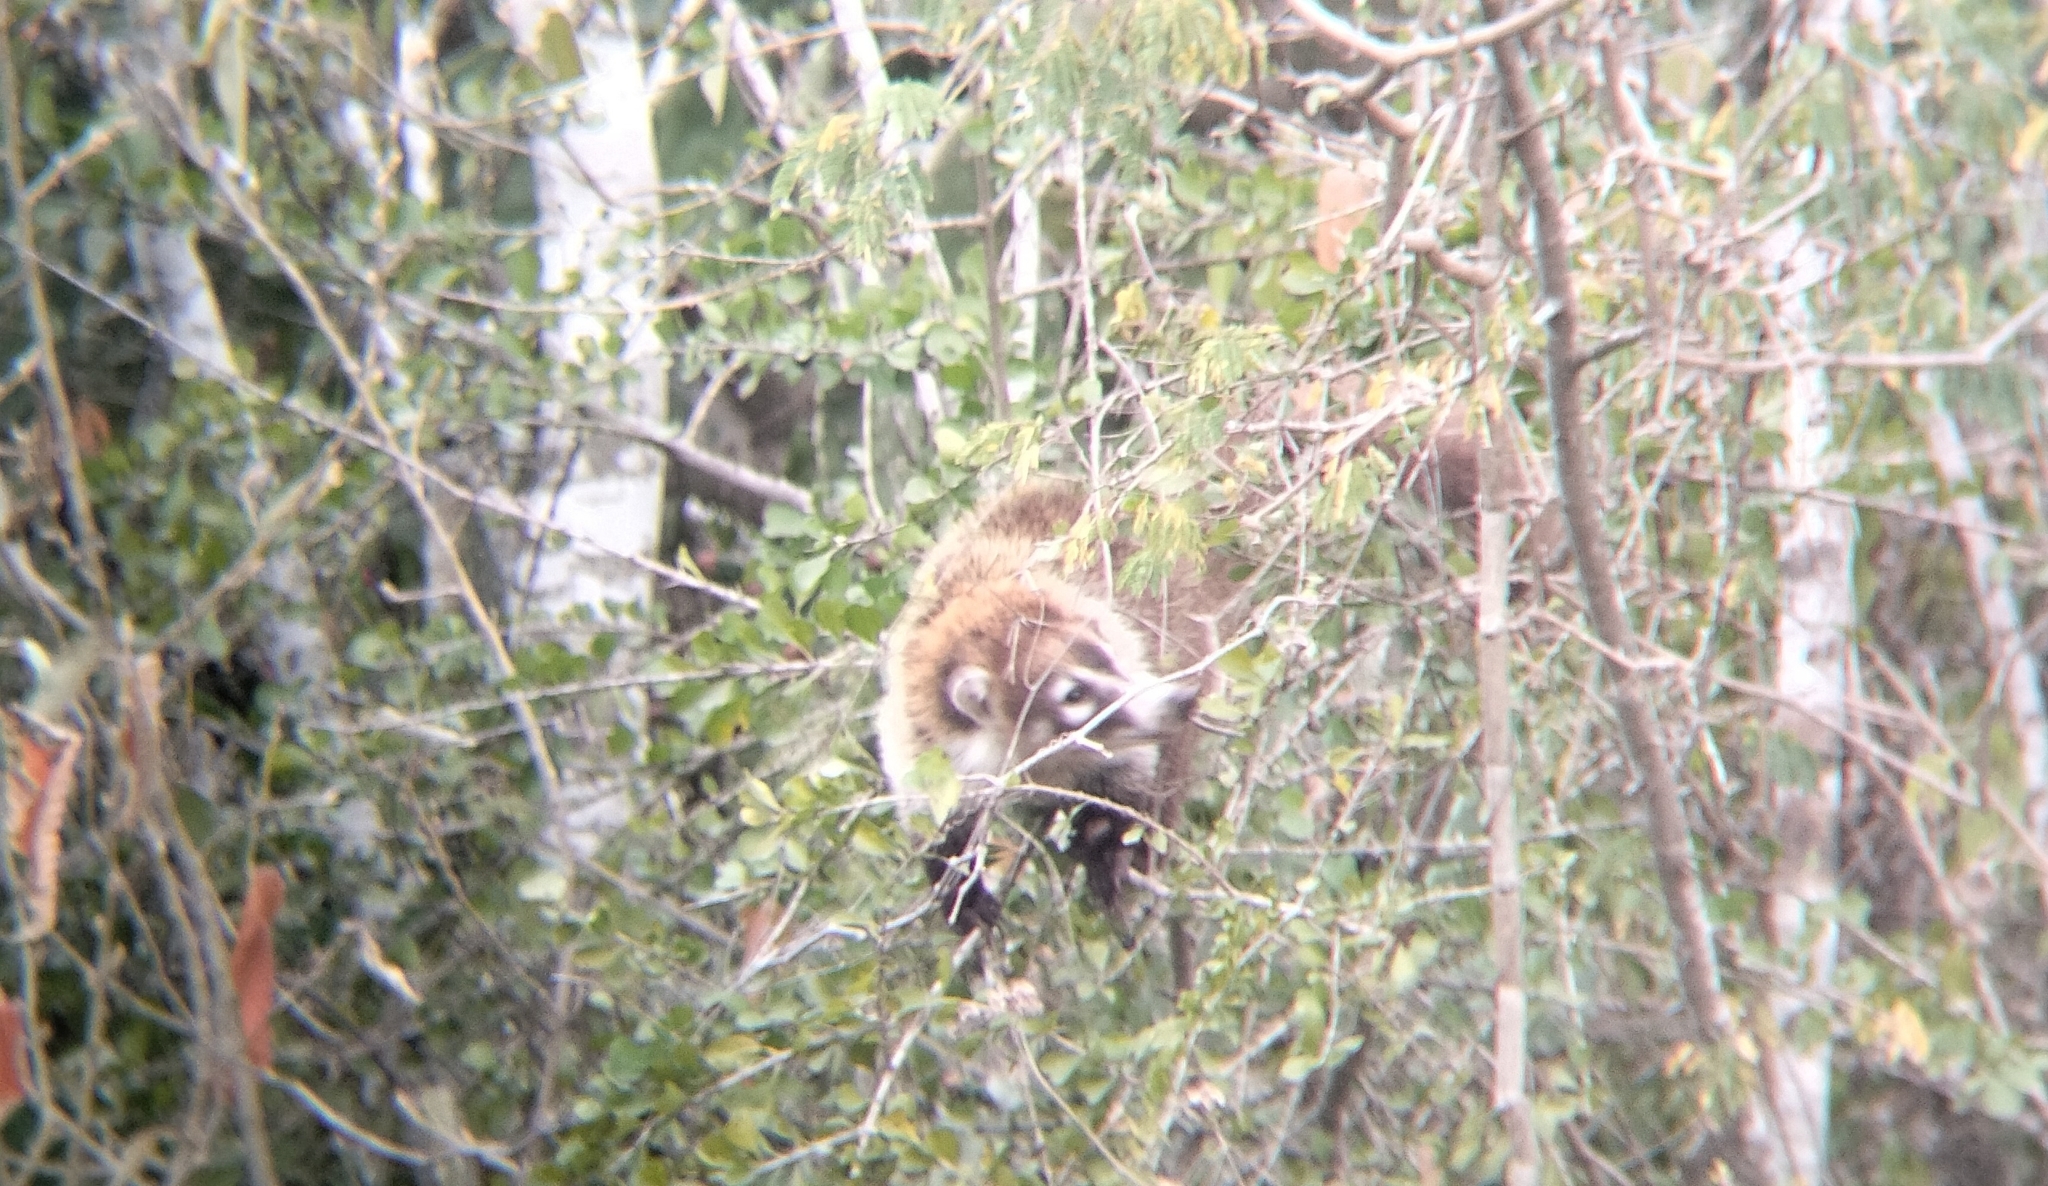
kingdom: Animalia
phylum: Chordata
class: Mammalia
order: Carnivora
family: Procyonidae
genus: Nasua
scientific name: Nasua narica
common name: White-nosed coati
